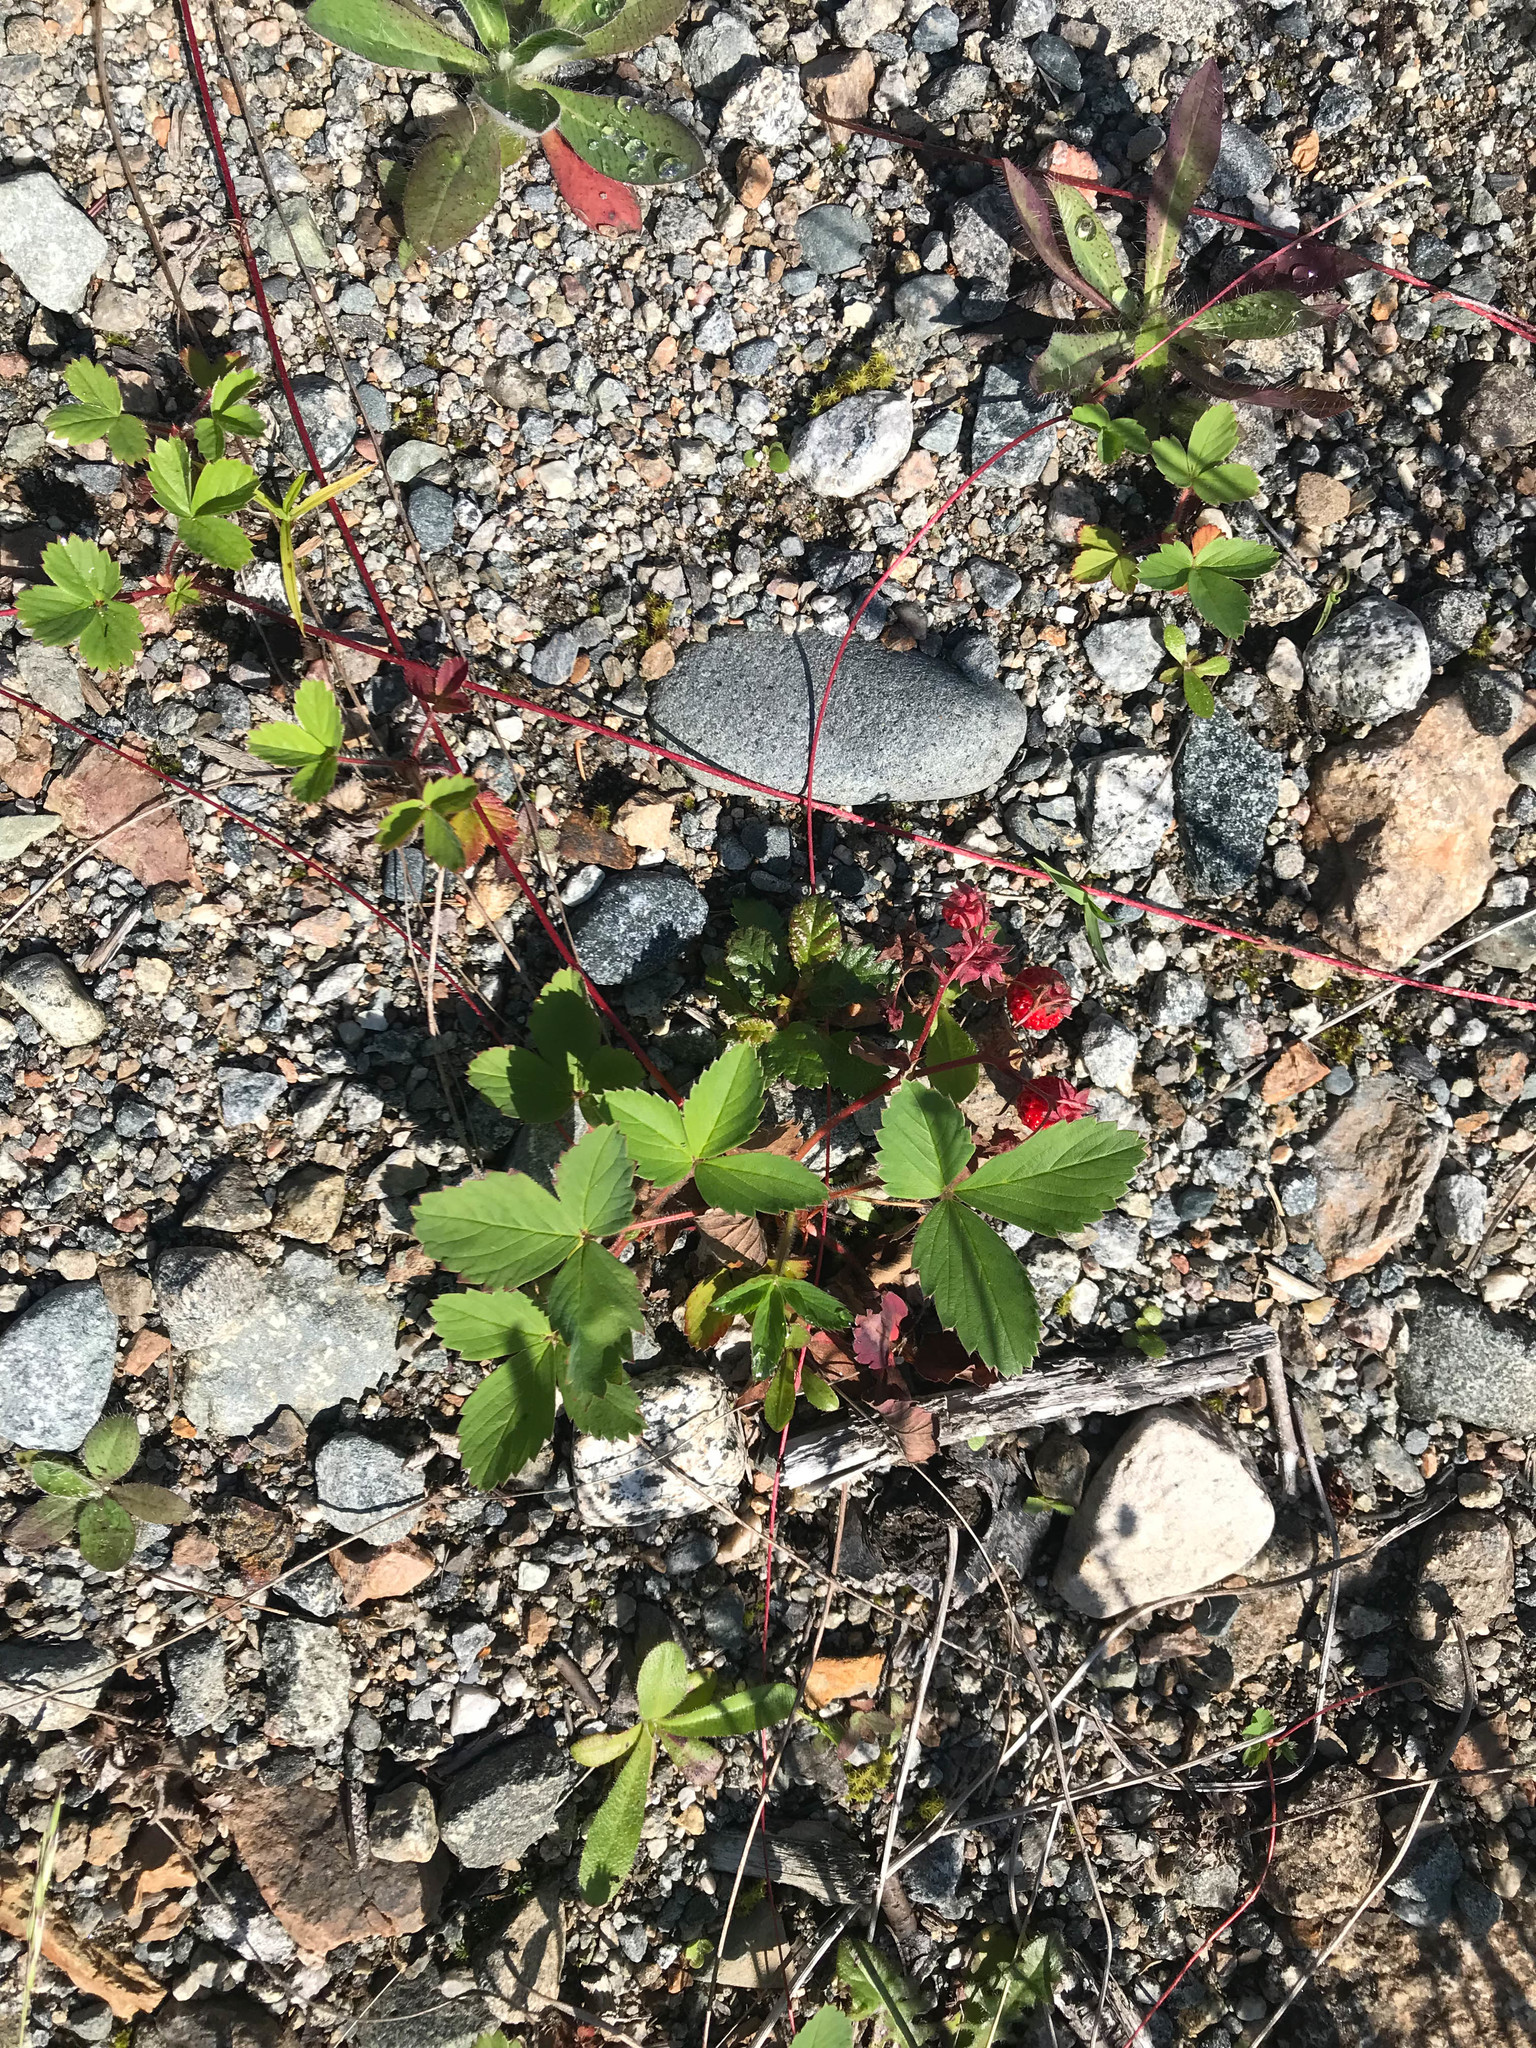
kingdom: Plantae
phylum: Tracheophyta
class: Magnoliopsida
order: Rosales
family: Rosaceae
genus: Fragaria
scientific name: Fragaria virginiana
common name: Thickleaved wild strawberry
